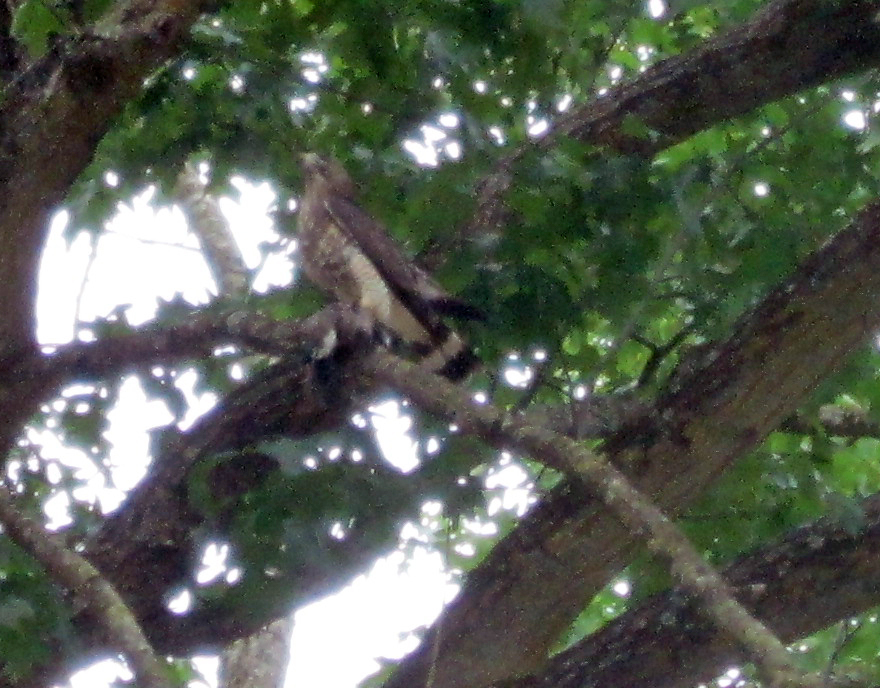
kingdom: Animalia
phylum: Chordata
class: Aves
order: Accipitriformes
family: Accipitridae
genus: Buteo
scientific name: Buteo platypterus
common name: Broad-winged hawk
